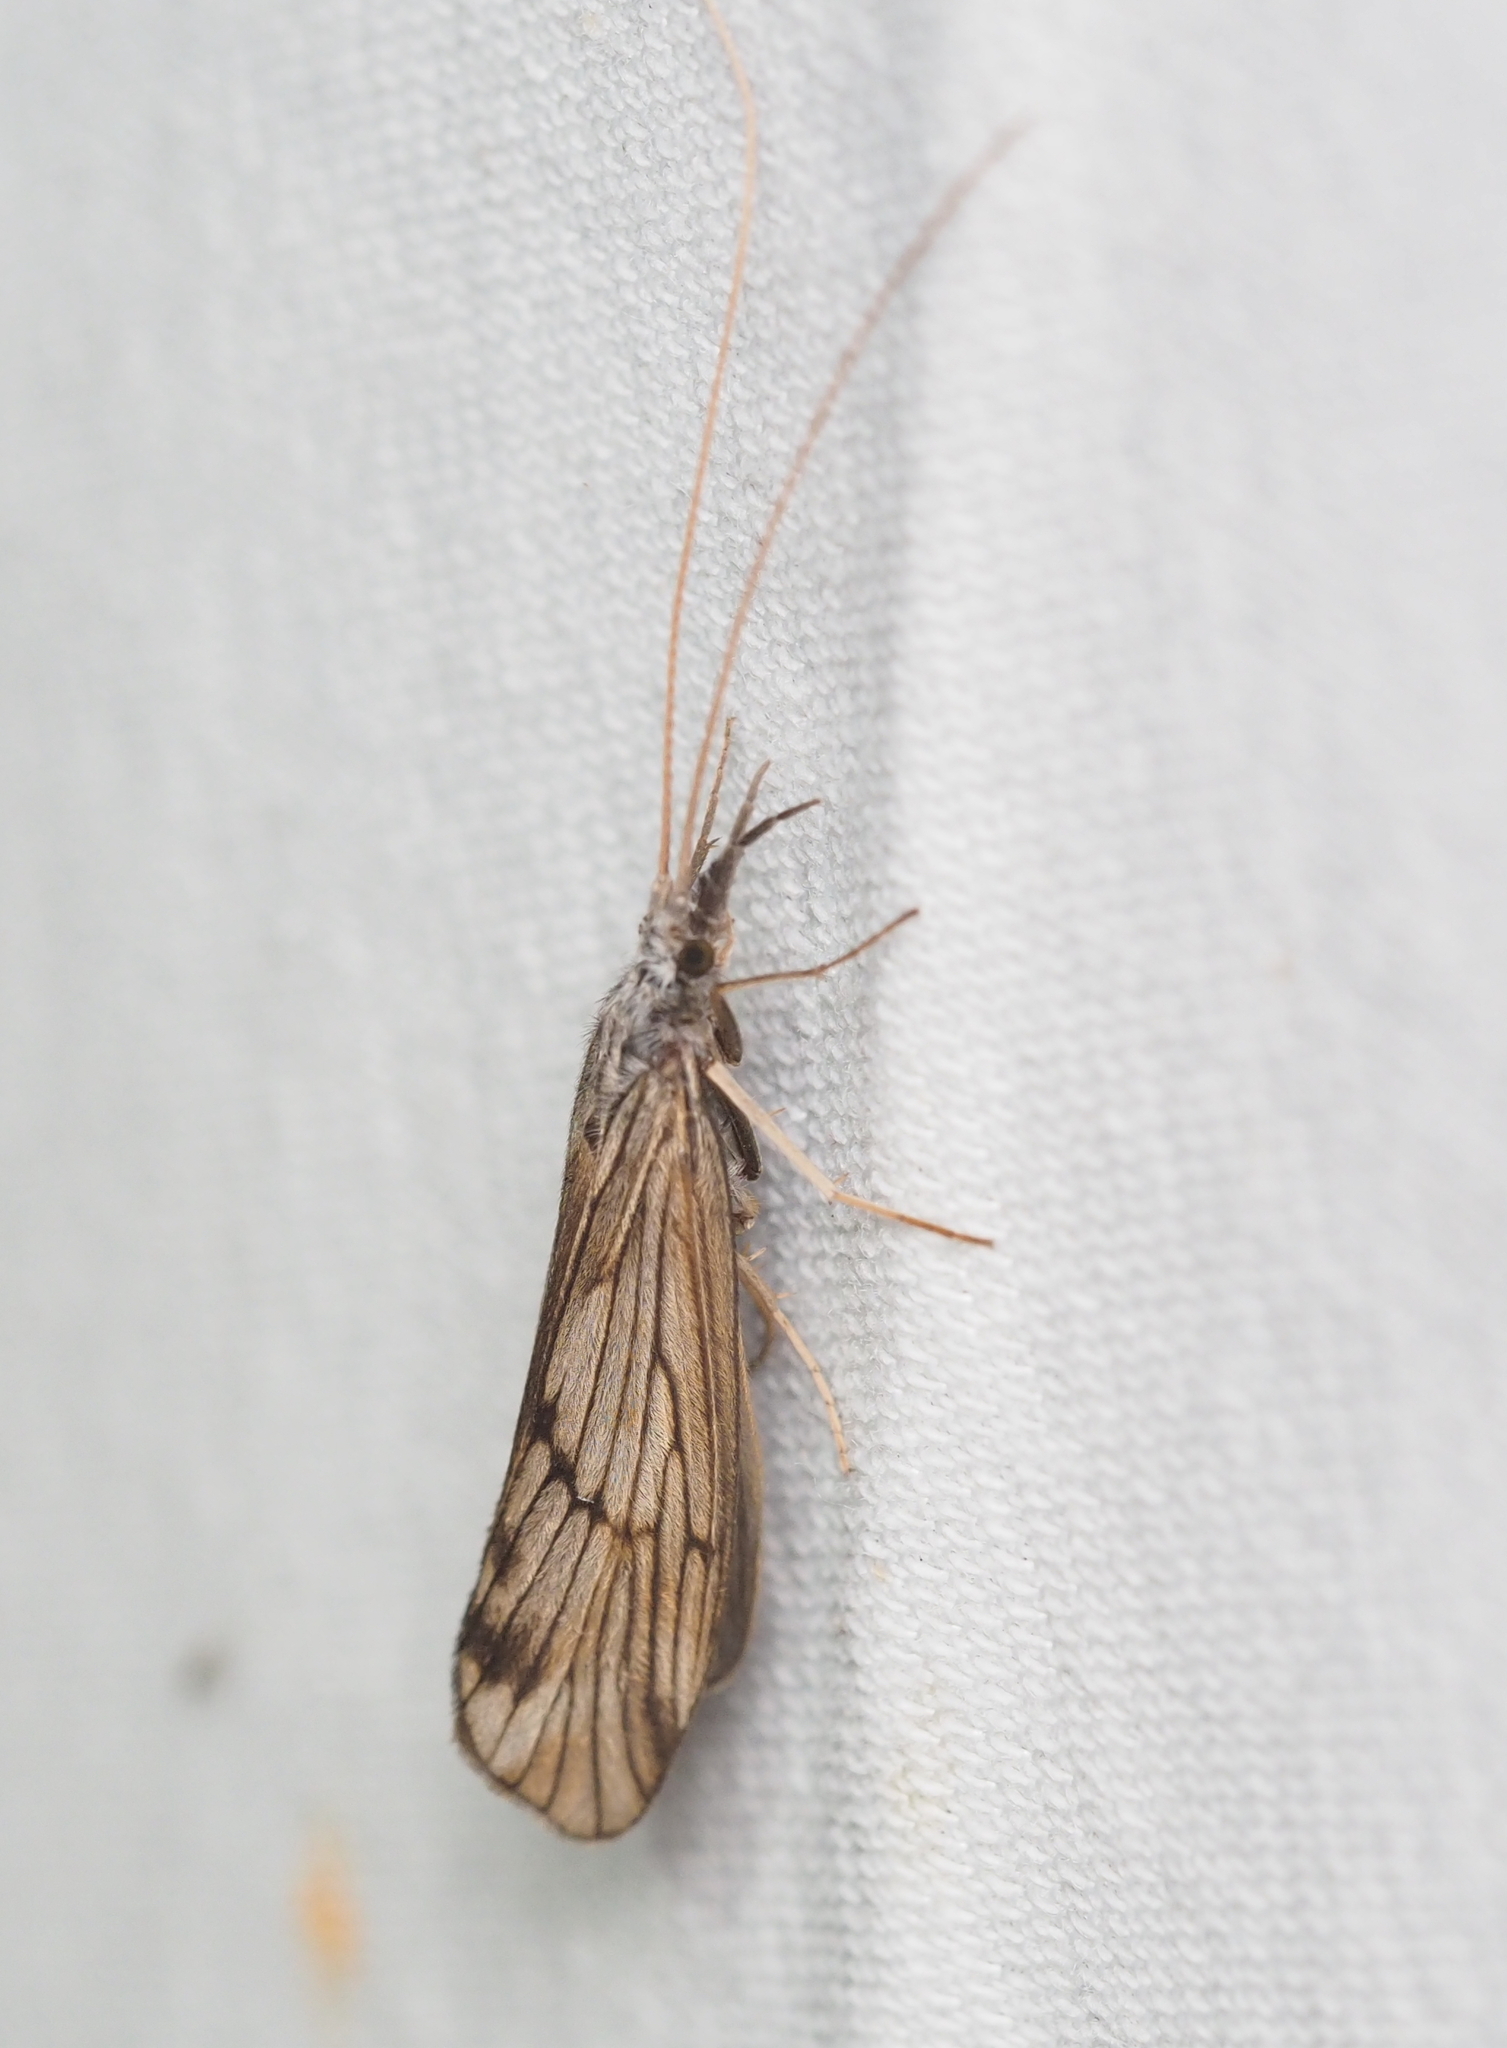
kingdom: Animalia
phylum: Arthropoda
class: Insecta
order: Trichoptera
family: Odontoceridae
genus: Odontocerum
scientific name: Odontocerum albicorne
